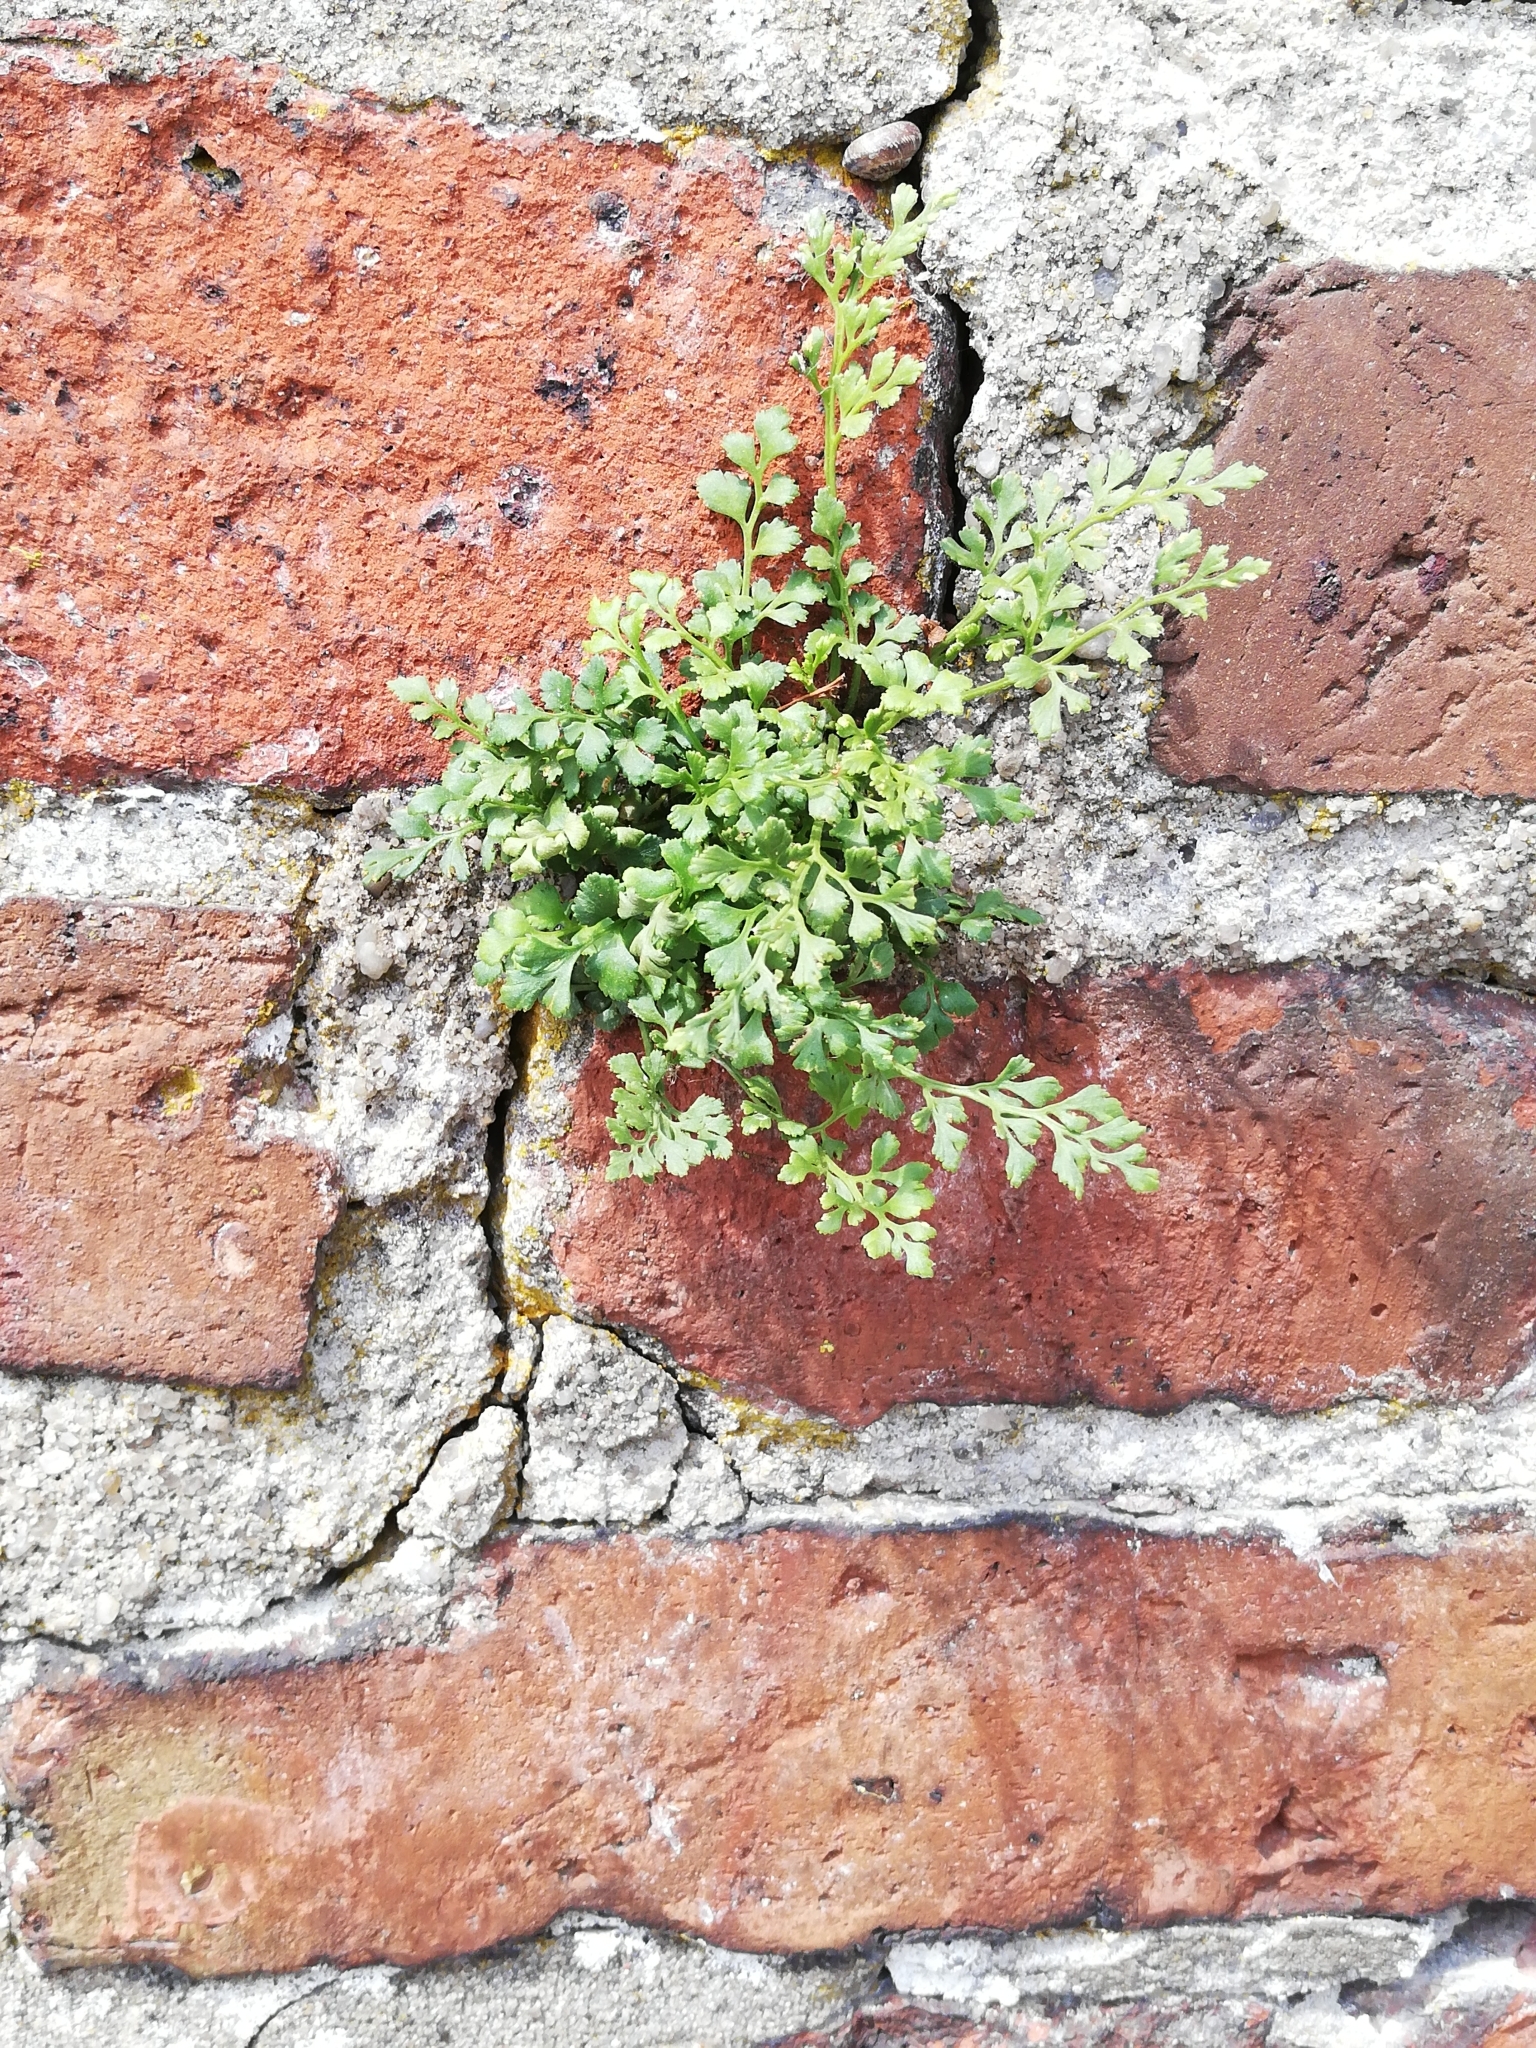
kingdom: Plantae
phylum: Tracheophyta
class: Polypodiopsida
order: Polypodiales
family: Aspleniaceae
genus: Asplenium
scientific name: Asplenium ruta-muraria
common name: Wall-rue
